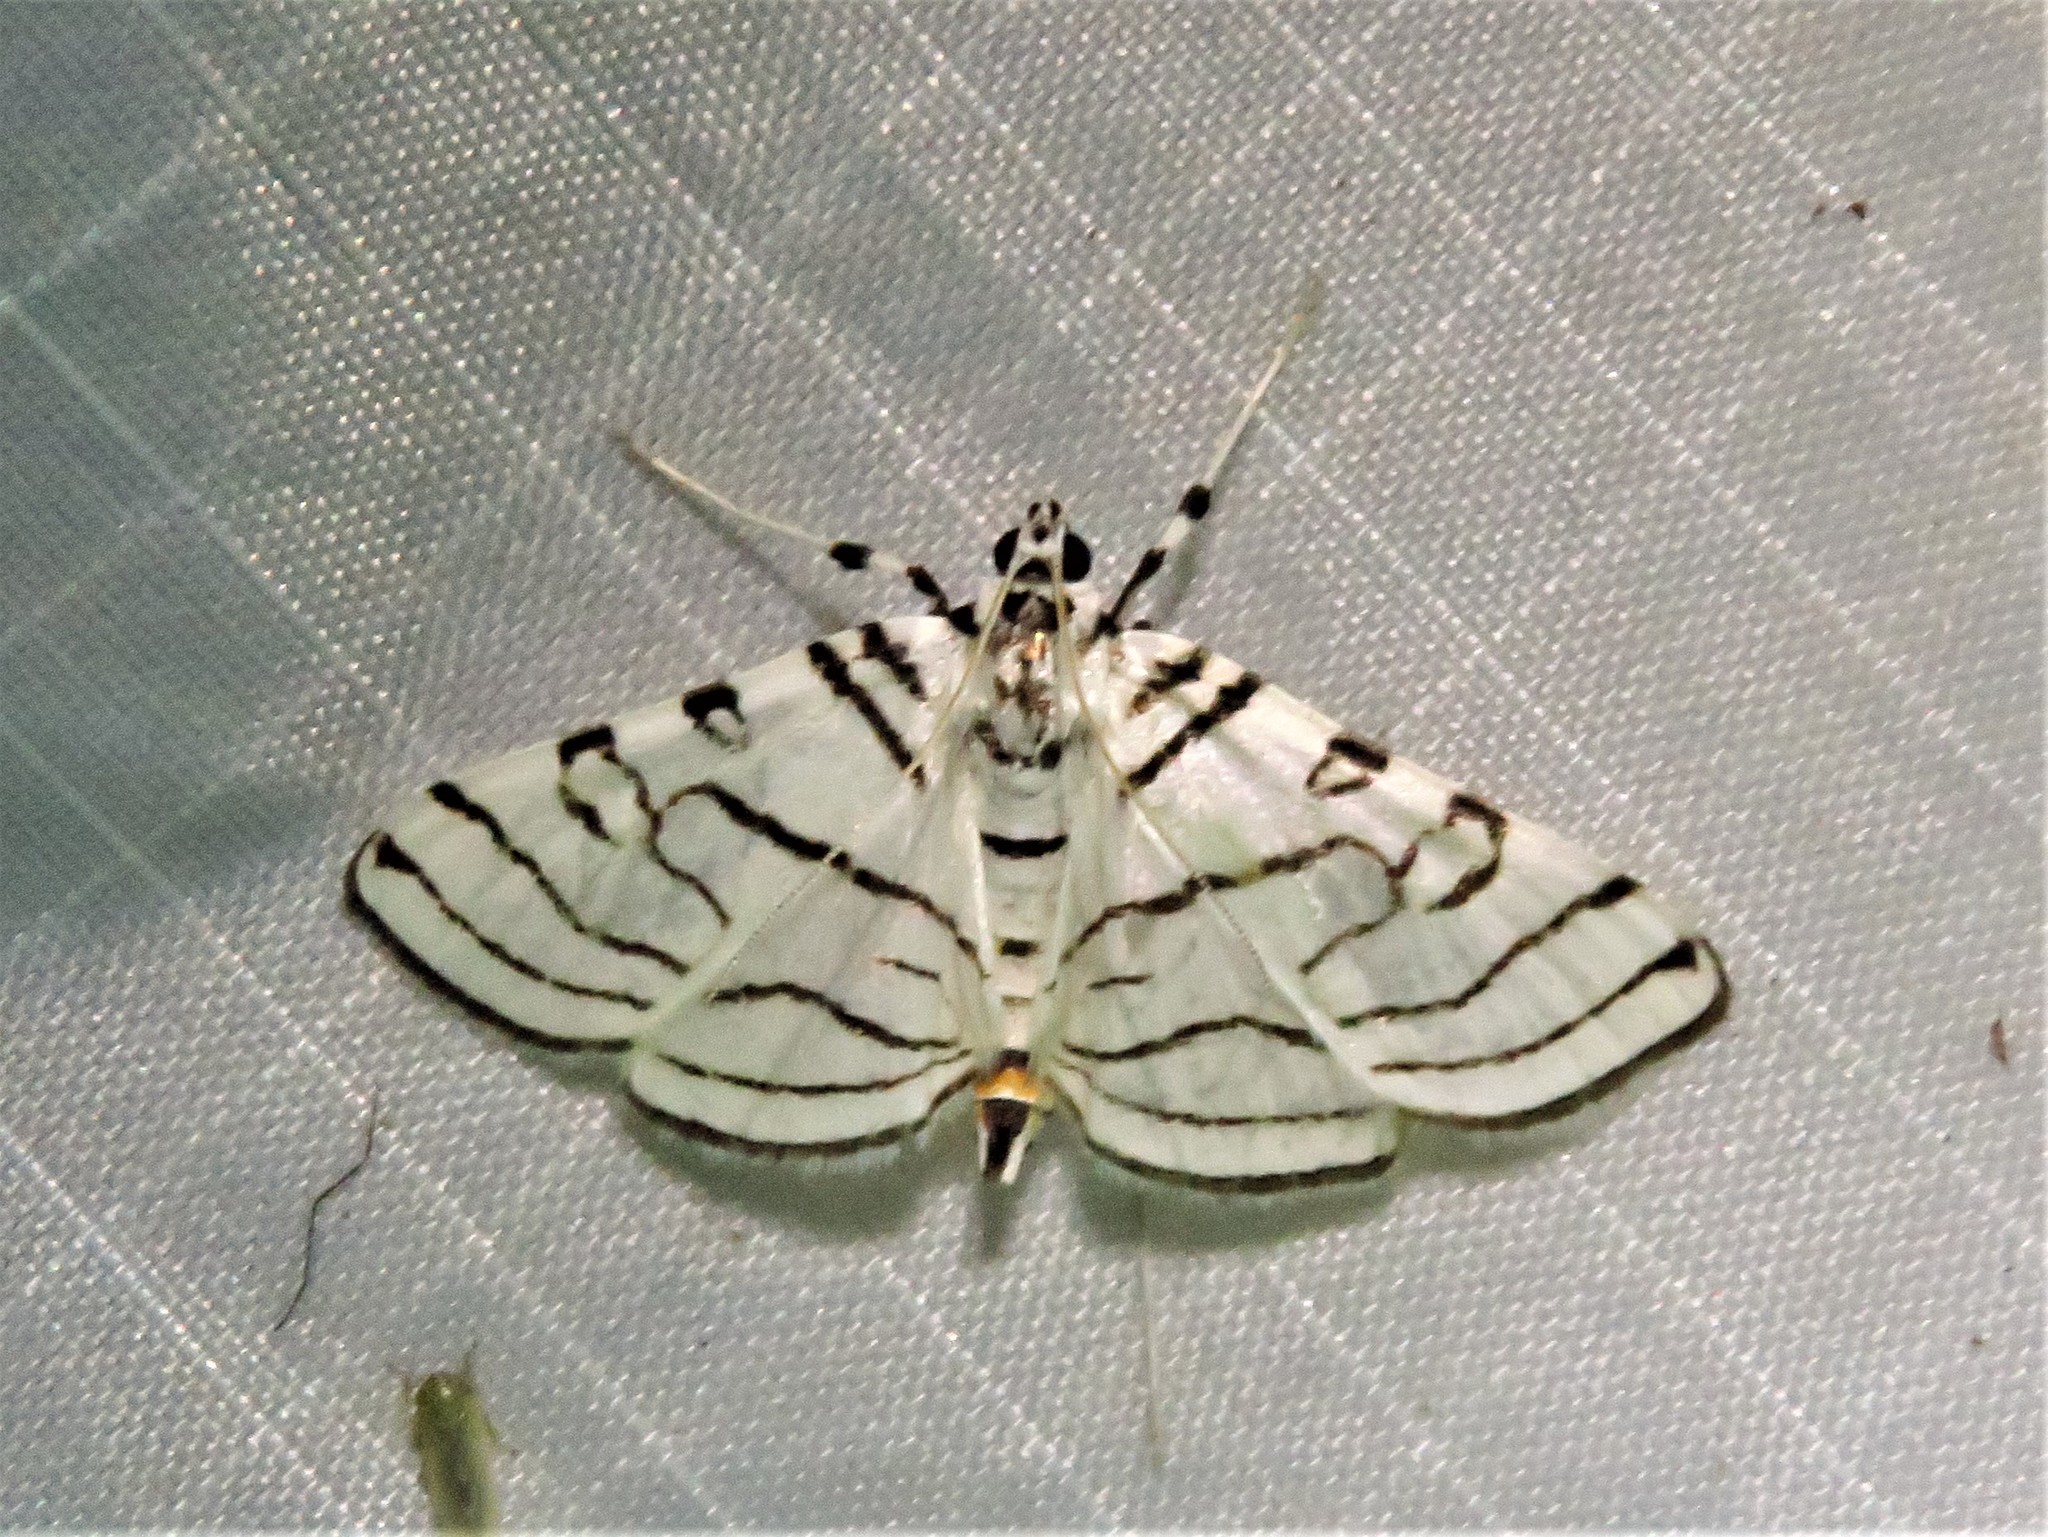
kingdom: Animalia
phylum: Arthropoda
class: Insecta
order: Lepidoptera
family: Crambidae
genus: Conchylodes
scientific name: Conchylodes concinnalis
